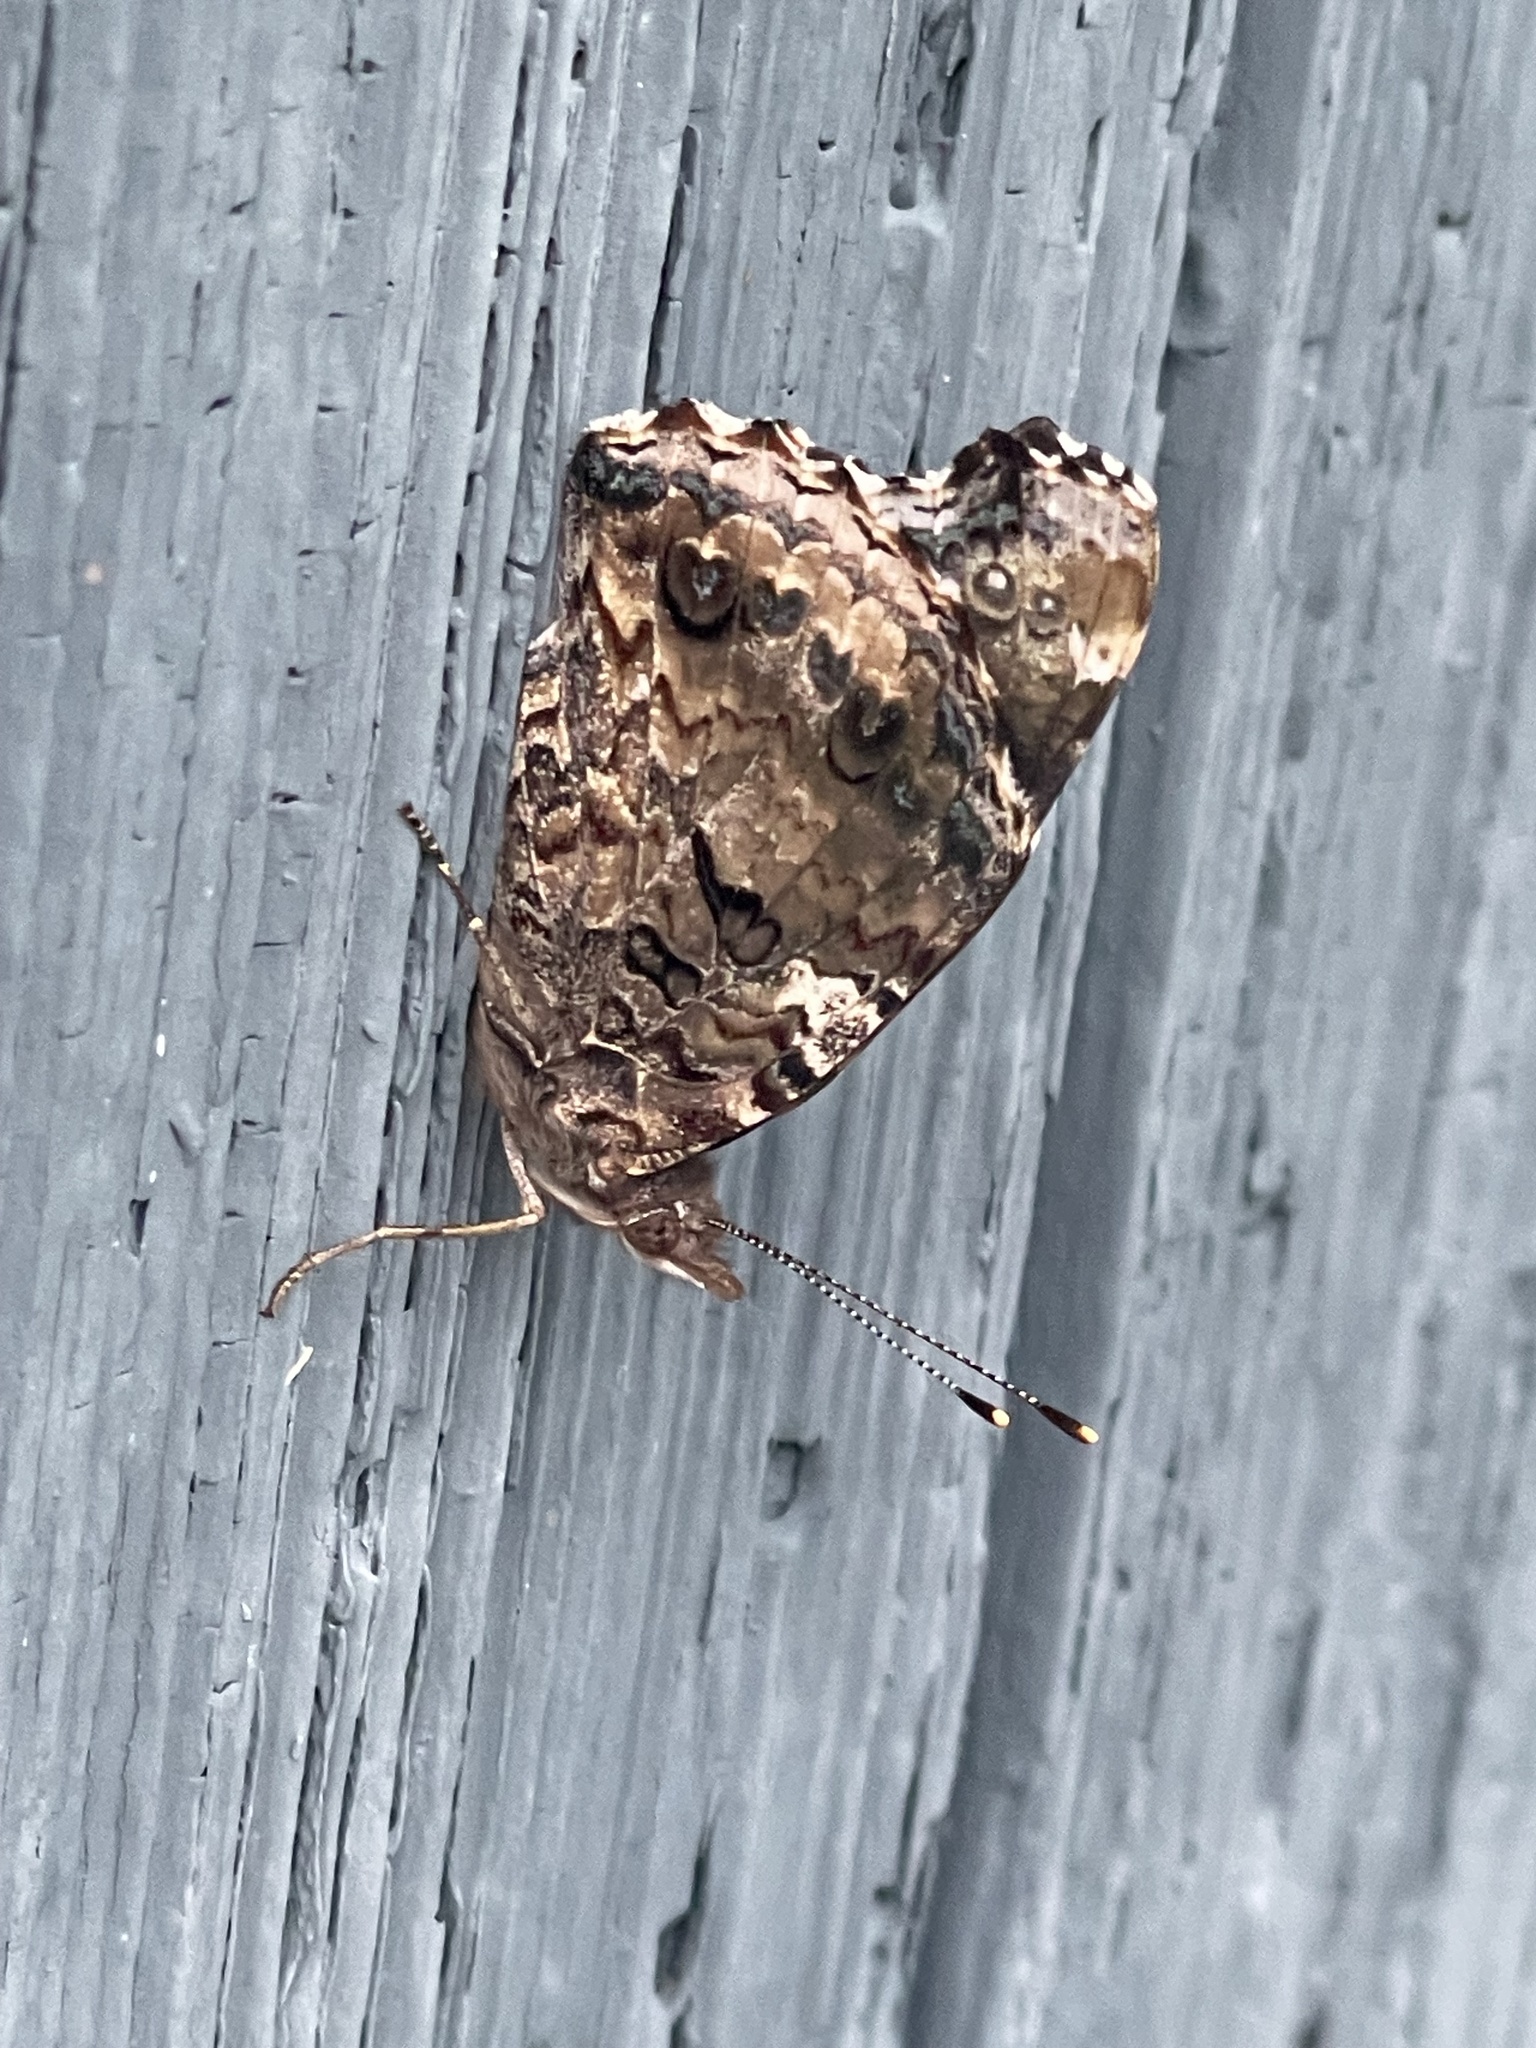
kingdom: Animalia
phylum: Arthropoda
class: Insecta
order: Lepidoptera
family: Nymphalidae
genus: Vanessa
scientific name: Vanessa atalanta
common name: Red admiral
